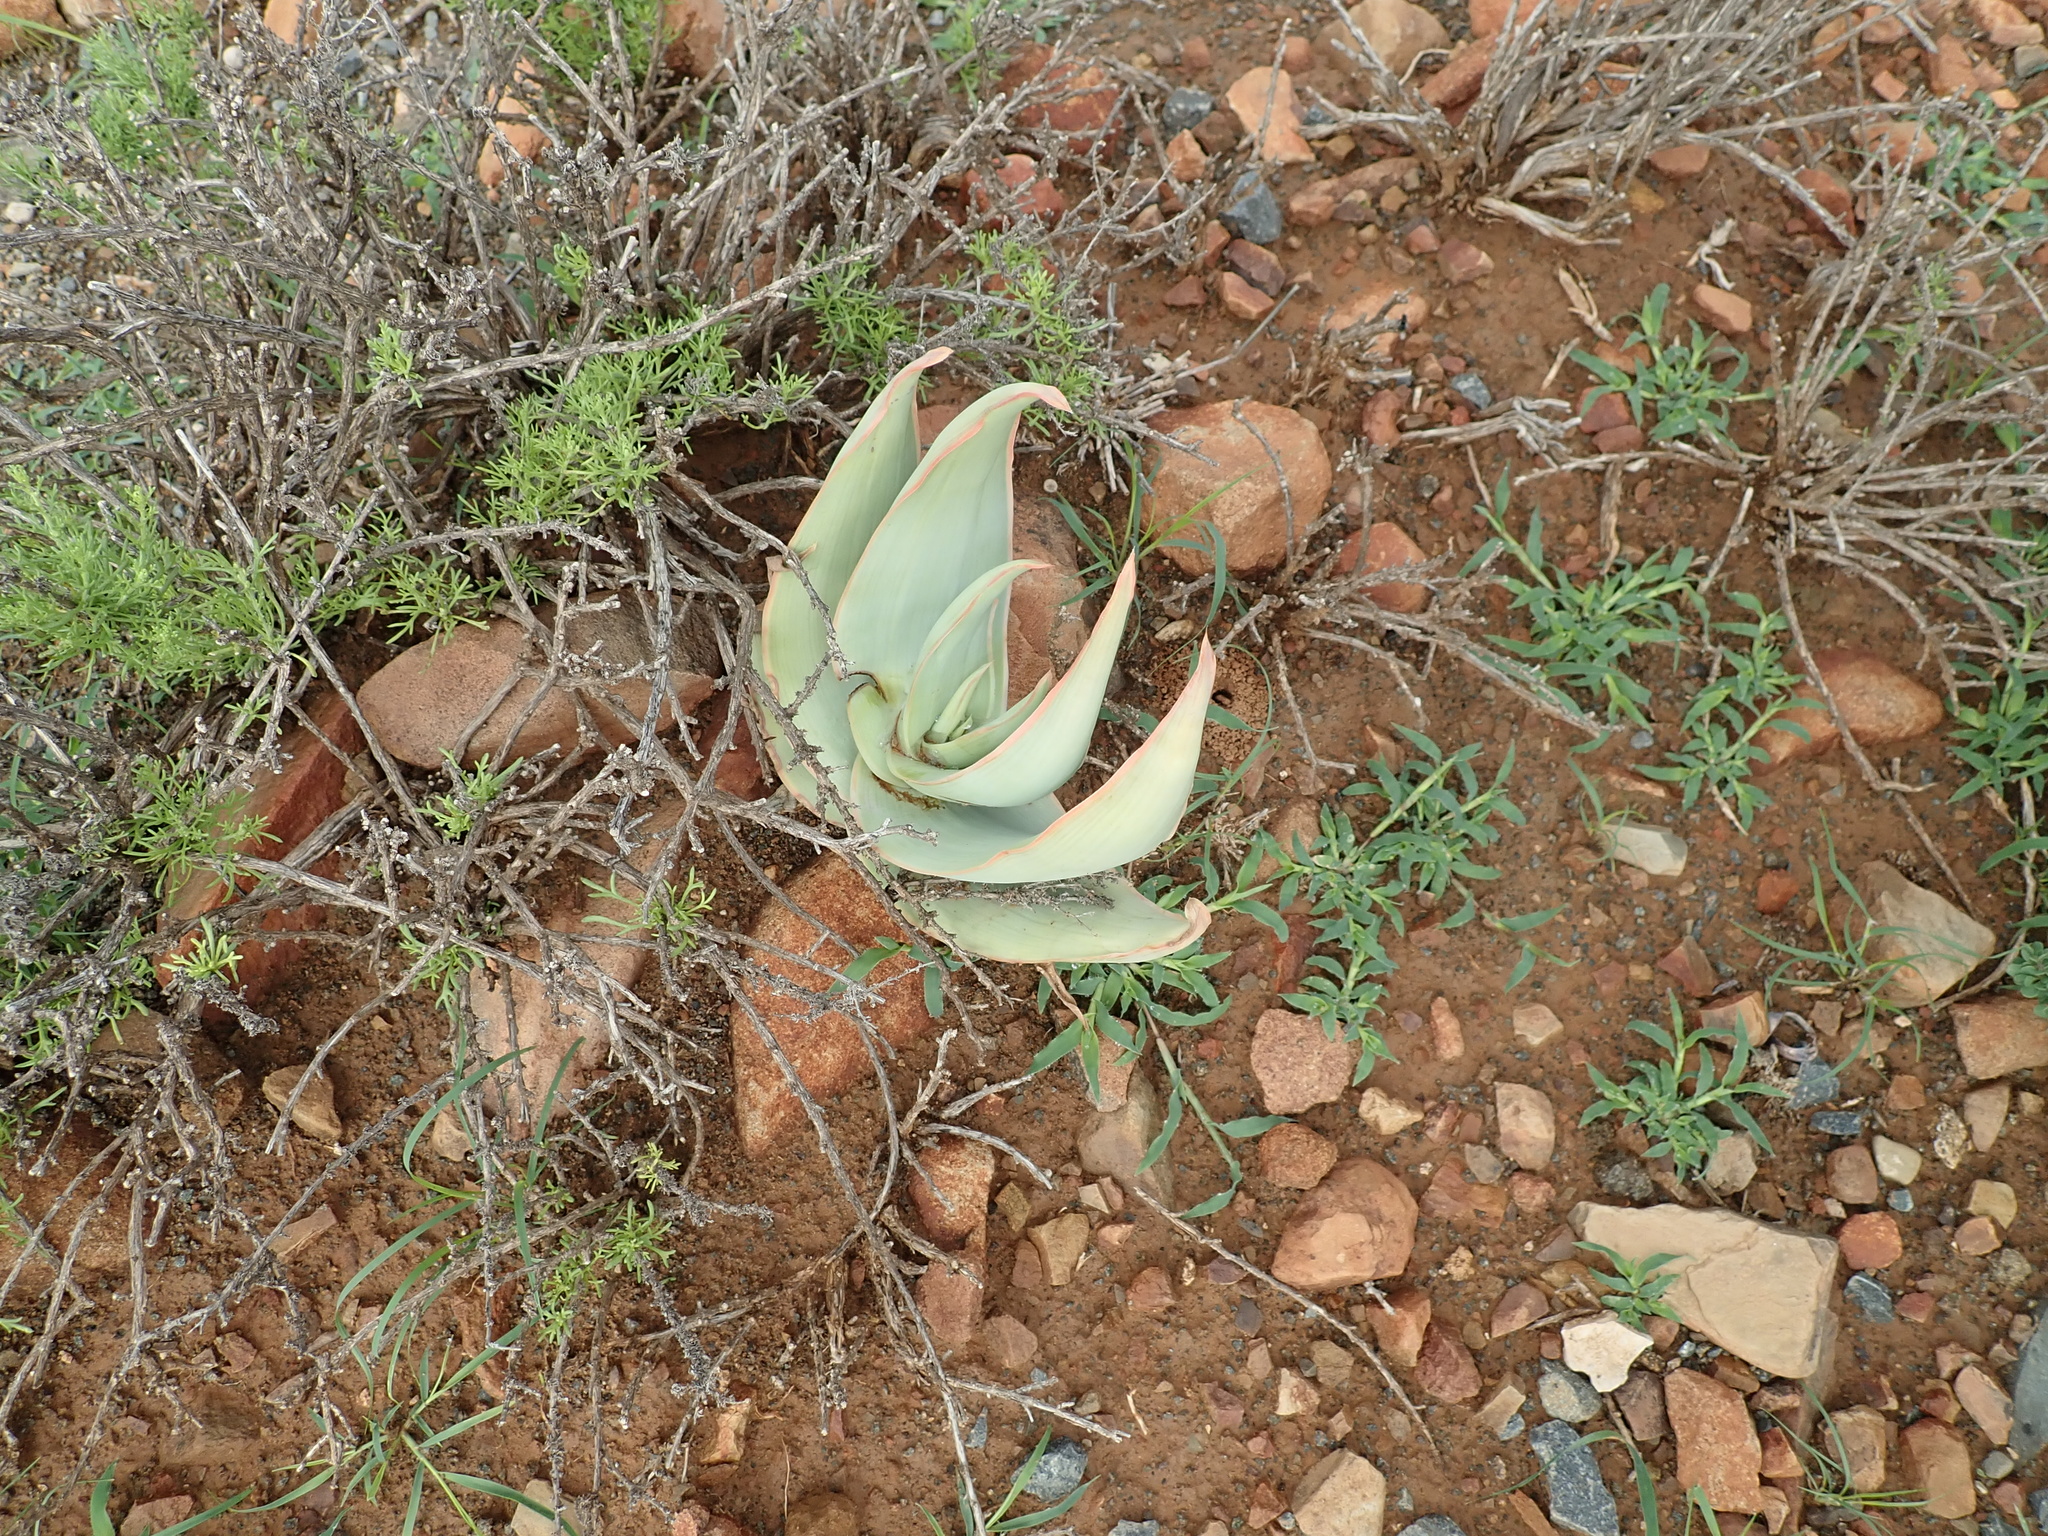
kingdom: Plantae
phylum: Tracheophyta
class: Liliopsida
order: Asparagales
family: Asphodelaceae
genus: Aloe
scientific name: Aloe striata
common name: Coral aloe
